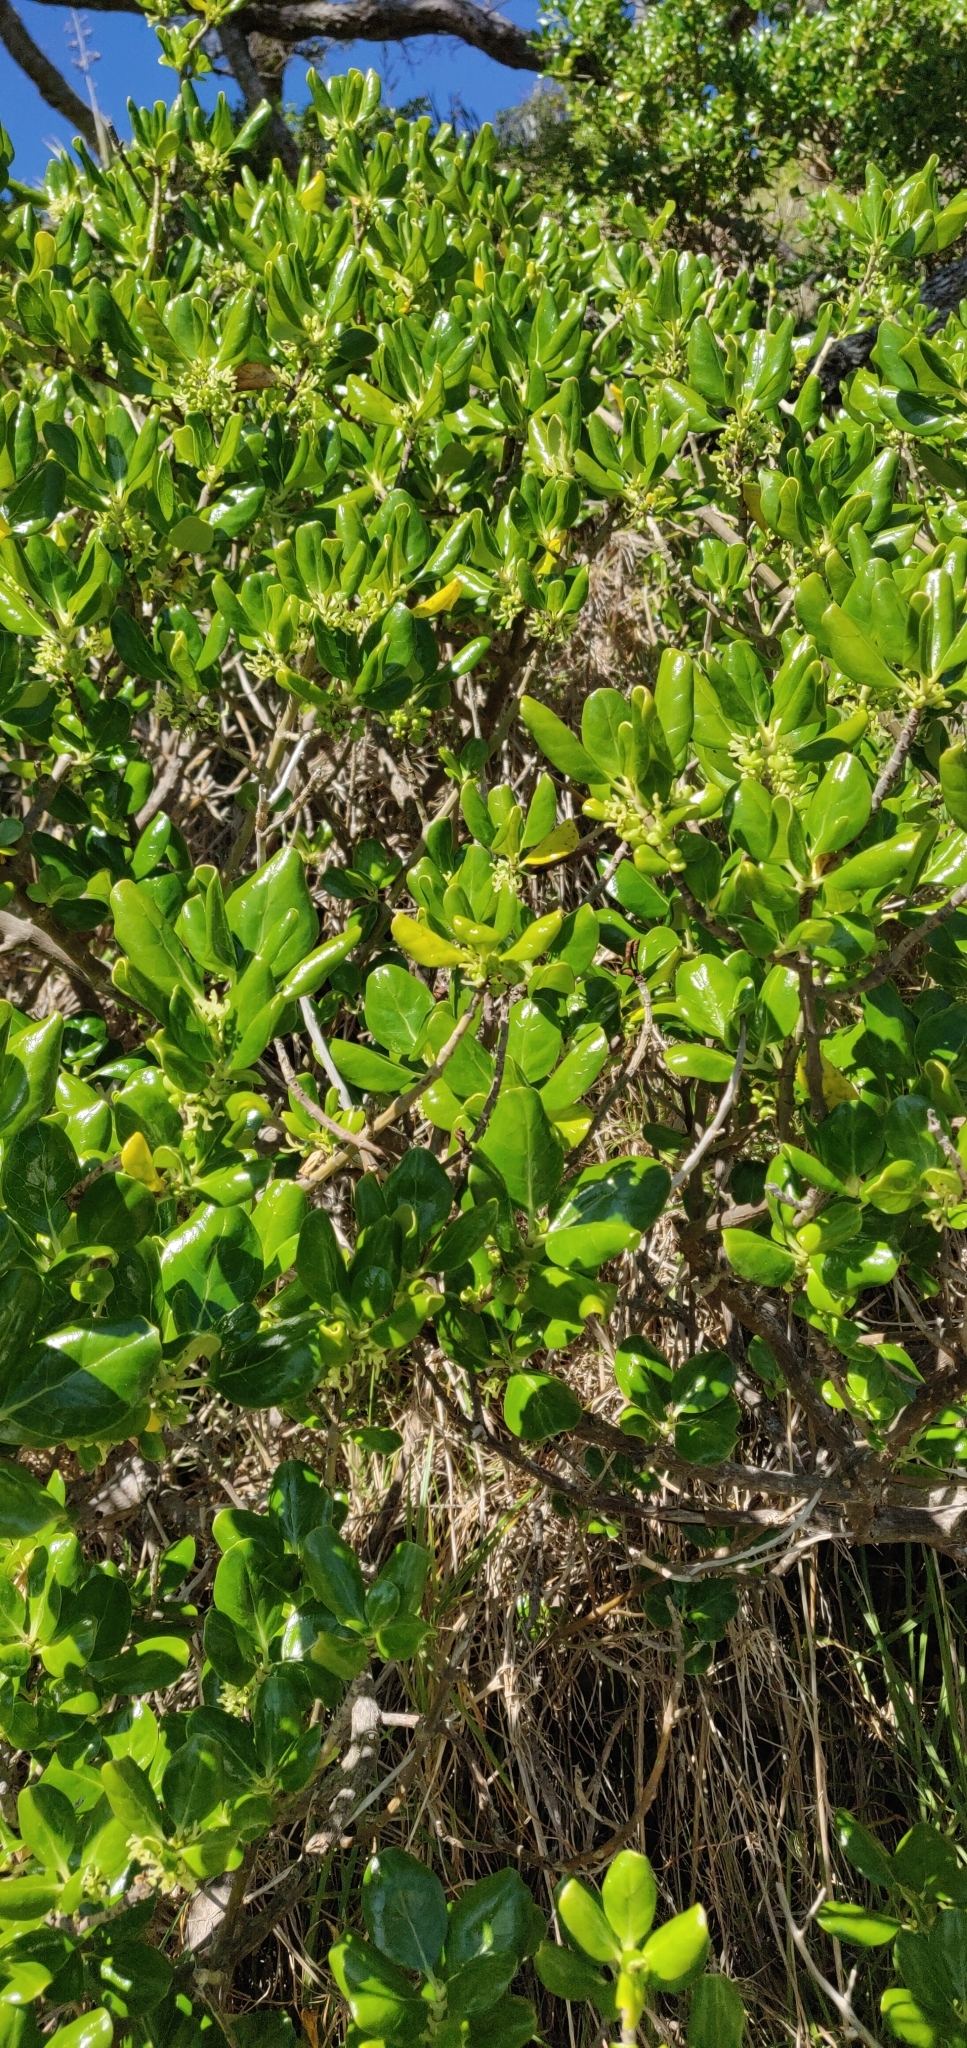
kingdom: Plantae
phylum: Tracheophyta
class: Magnoliopsida
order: Gentianales
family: Rubiaceae
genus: Coprosma
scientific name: Coprosma repens
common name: Tree bedstraw
